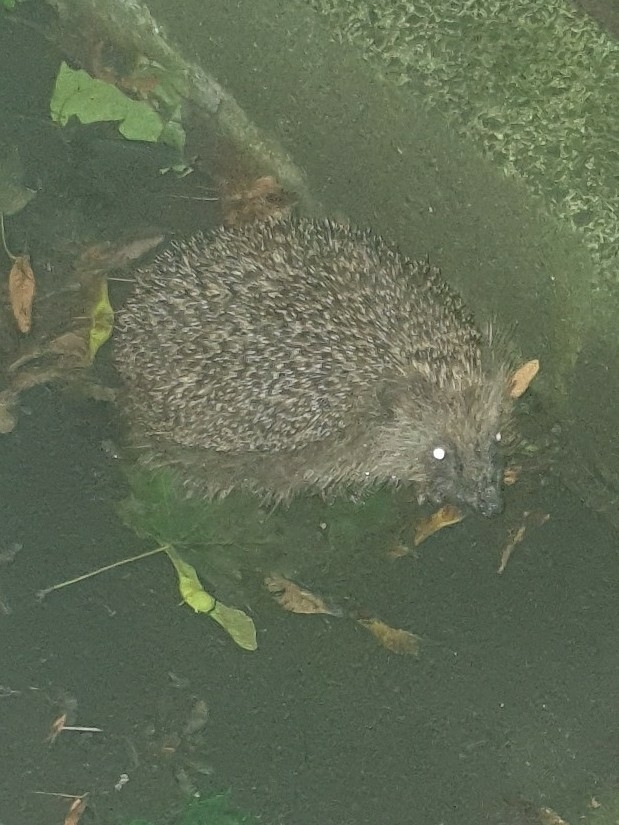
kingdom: Animalia
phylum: Chordata
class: Mammalia
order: Erinaceomorpha
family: Erinaceidae
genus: Erinaceus
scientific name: Erinaceus europaeus
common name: West european hedgehog
